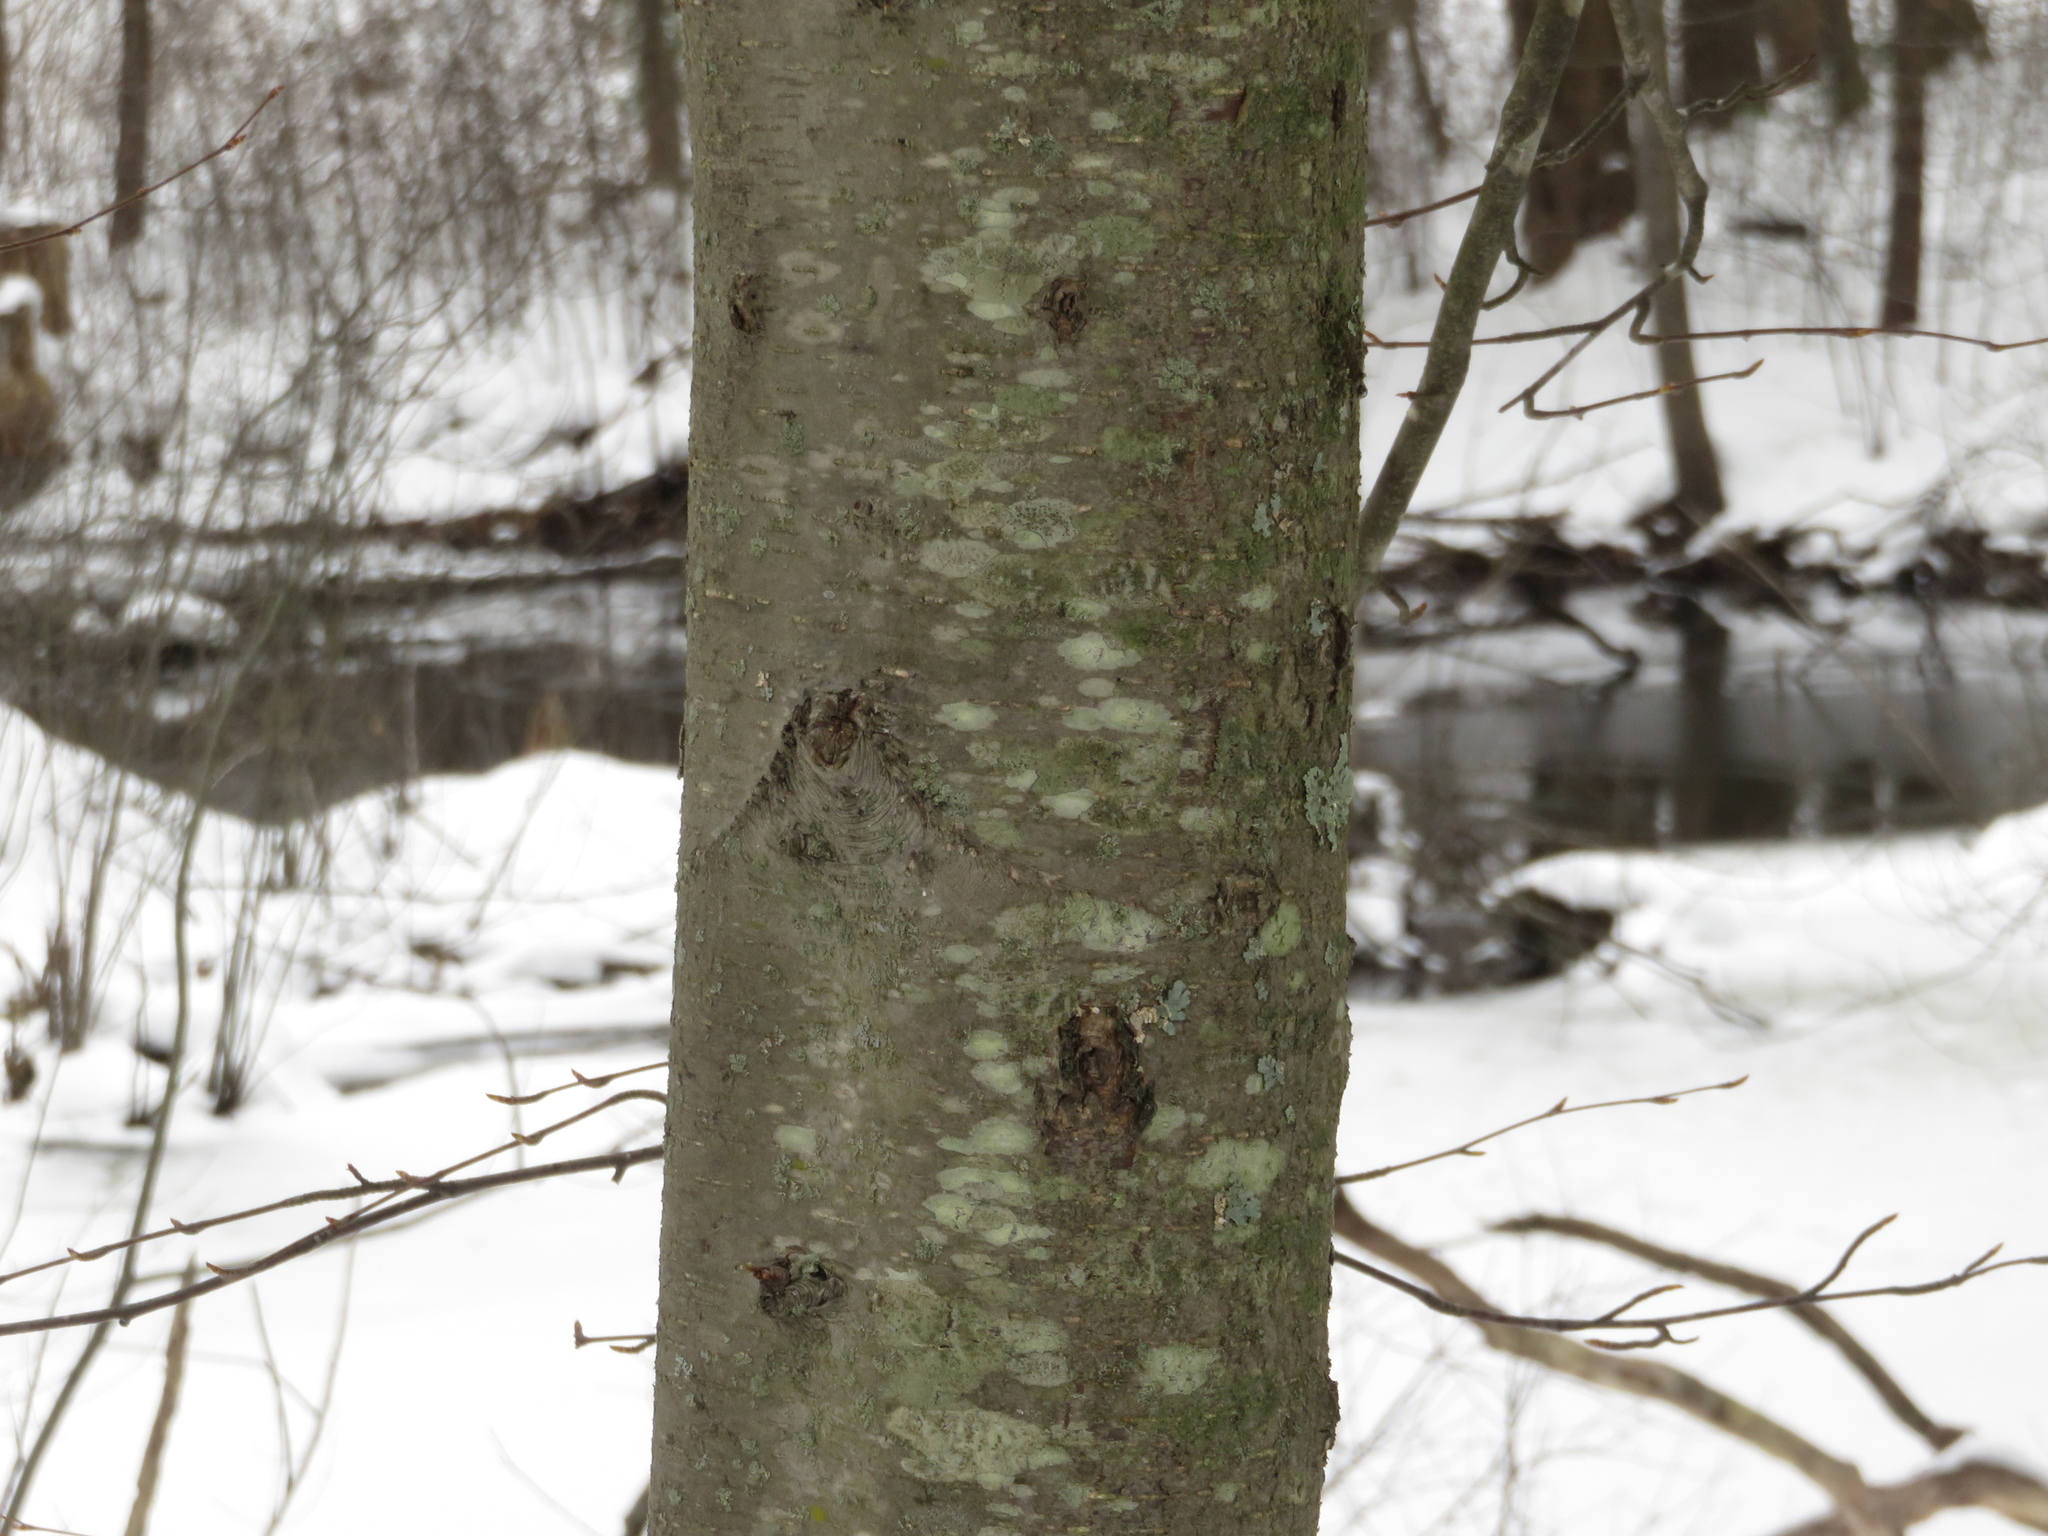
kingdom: Plantae
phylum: Tracheophyta
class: Magnoliopsida
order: Fagales
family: Betulaceae
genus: Betula
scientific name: Betula lenta
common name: Black birch
